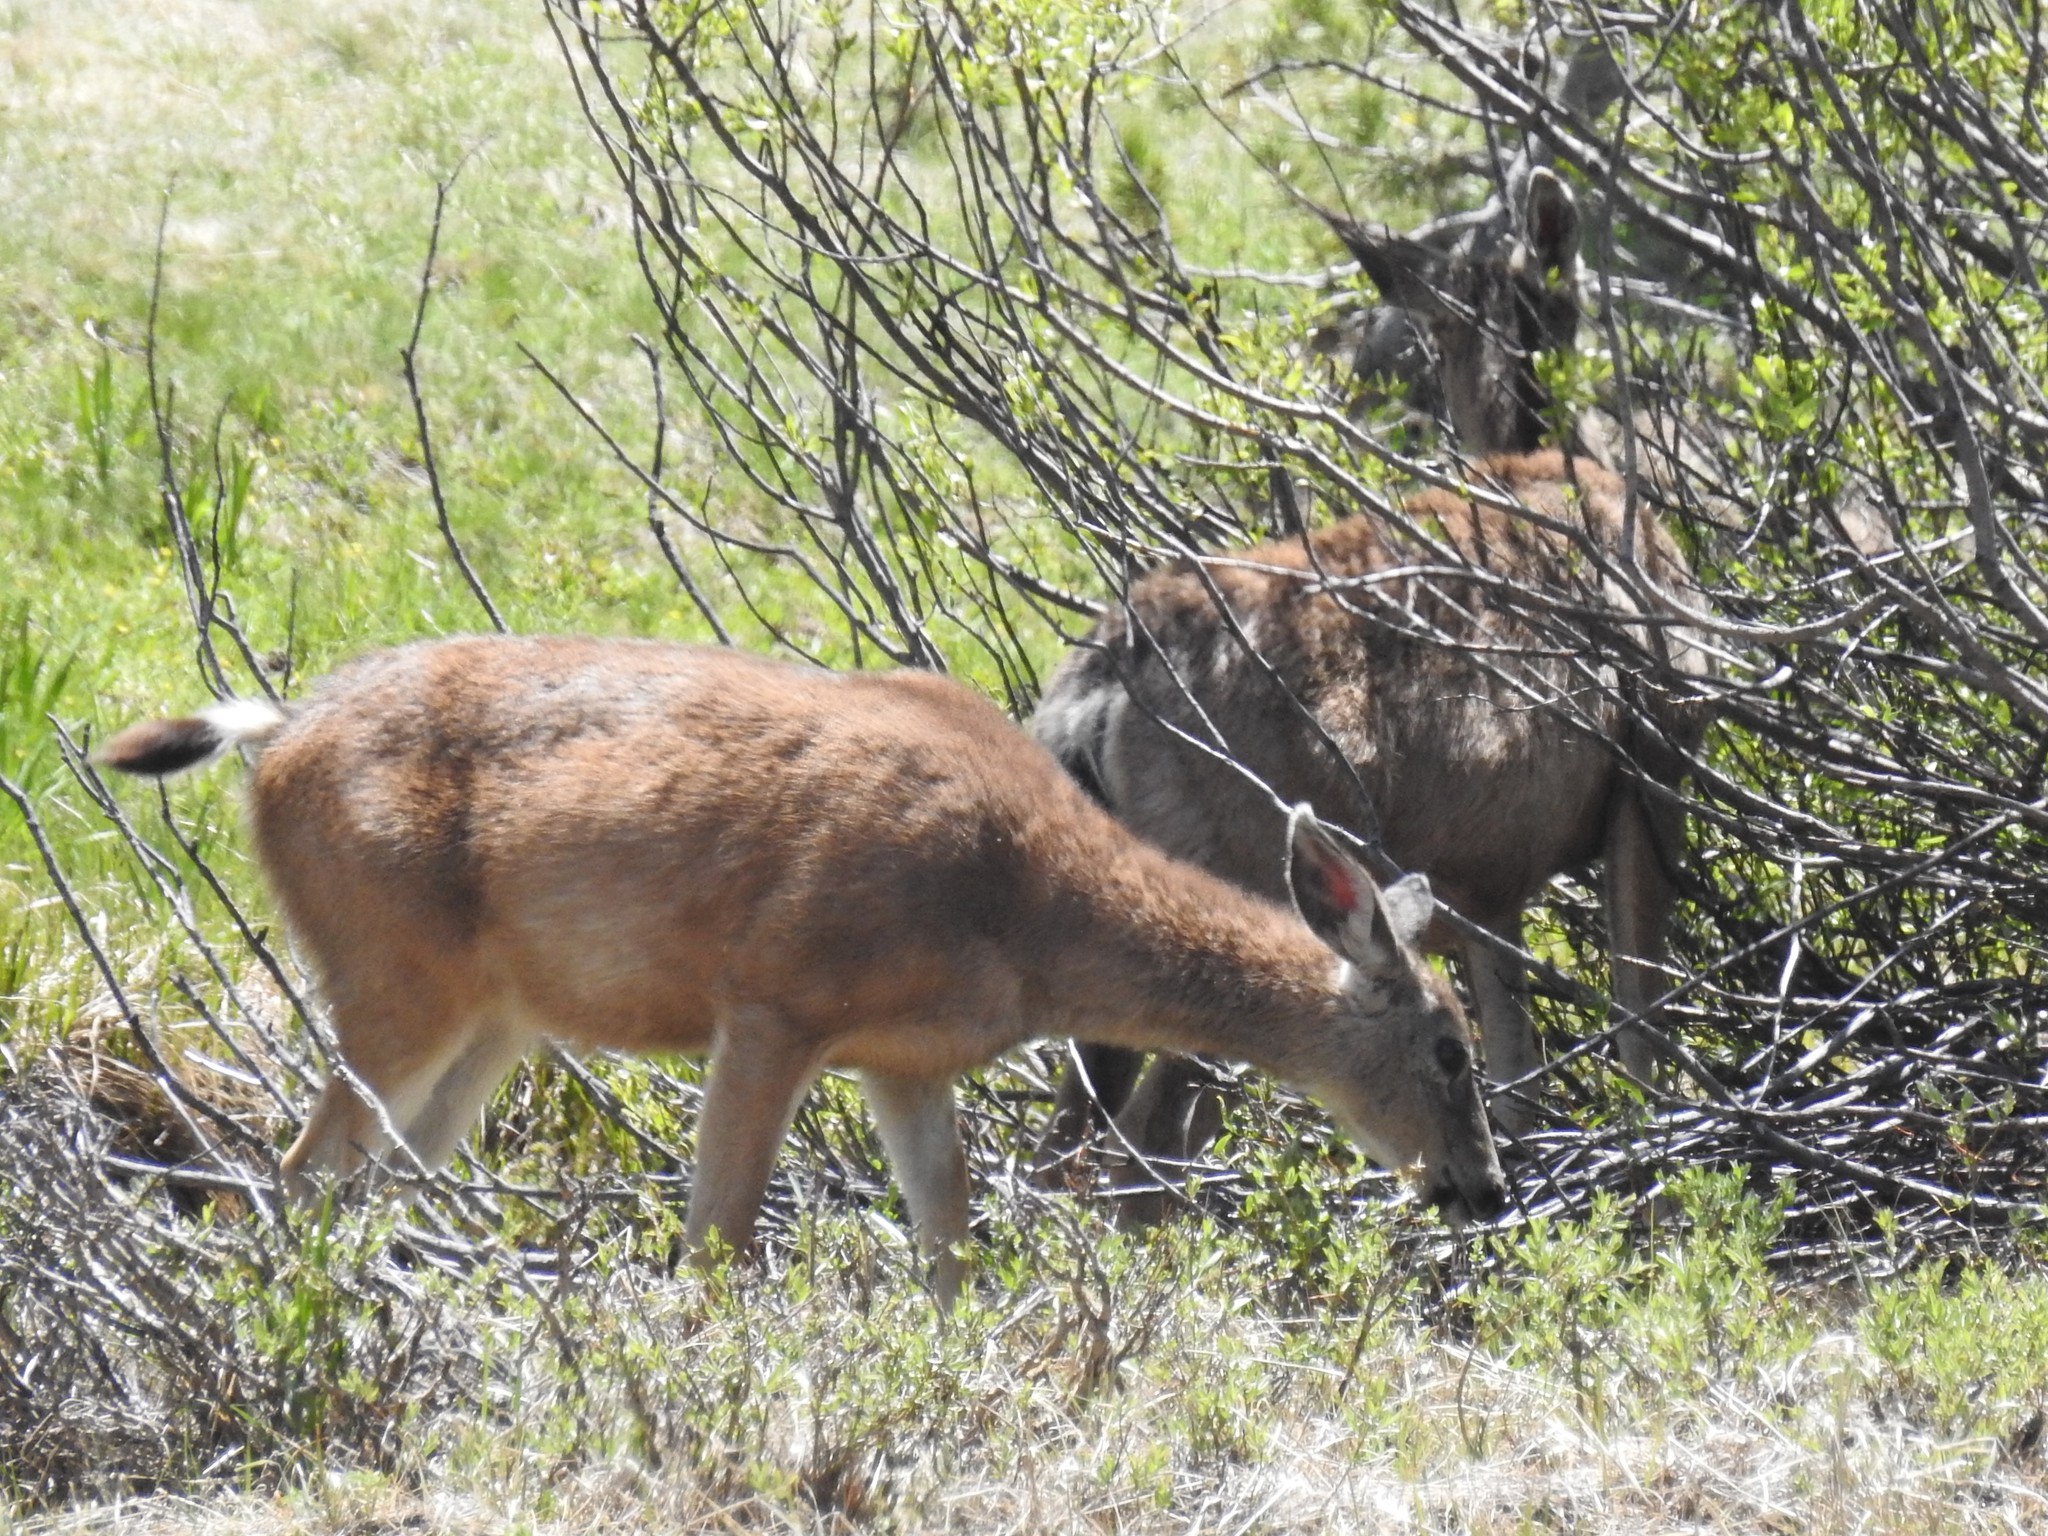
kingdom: Animalia
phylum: Chordata
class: Mammalia
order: Artiodactyla
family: Cervidae
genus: Odocoileus
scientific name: Odocoileus hemionus
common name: Mule deer
